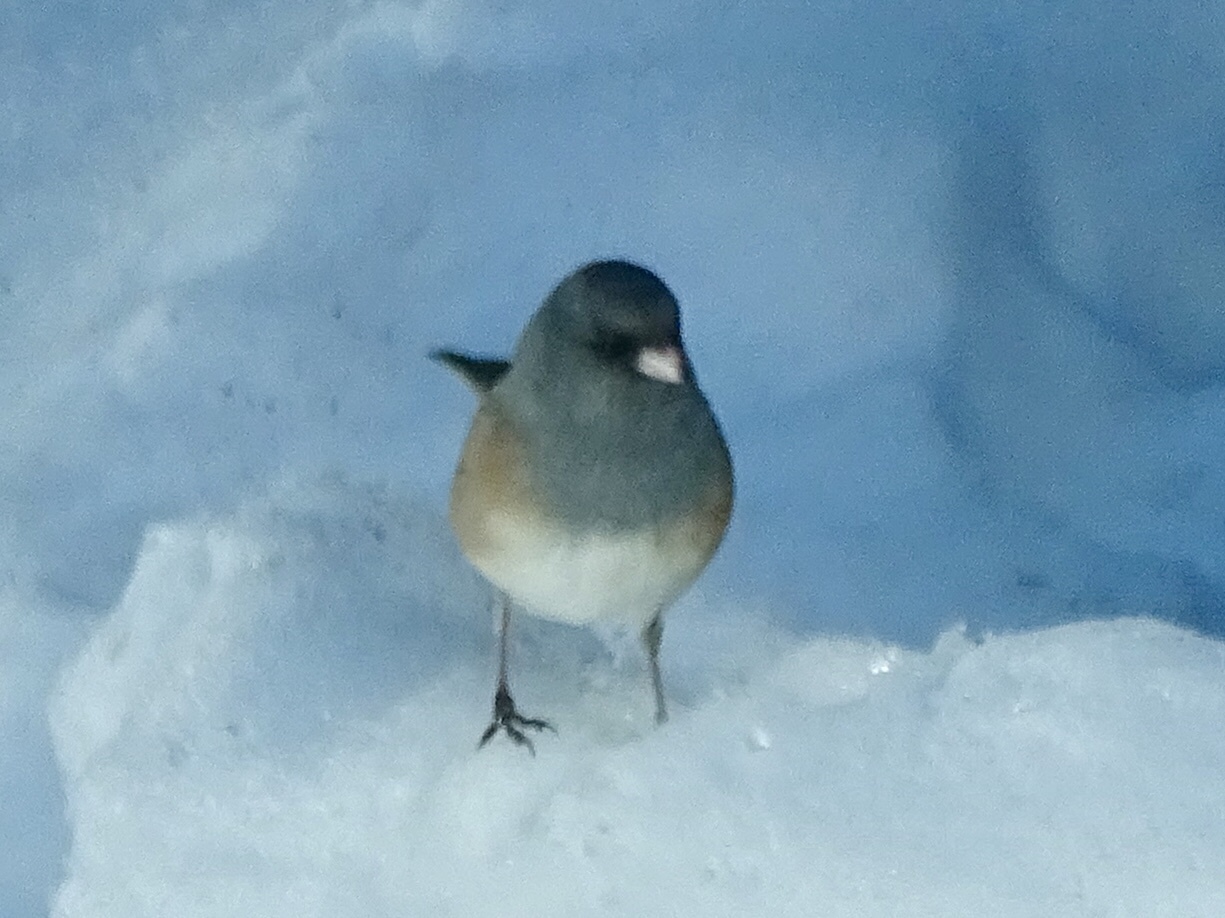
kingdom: Animalia
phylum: Chordata
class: Aves
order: Passeriformes
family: Passerellidae
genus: Junco
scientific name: Junco hyemalis
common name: Dark-eyed junco
